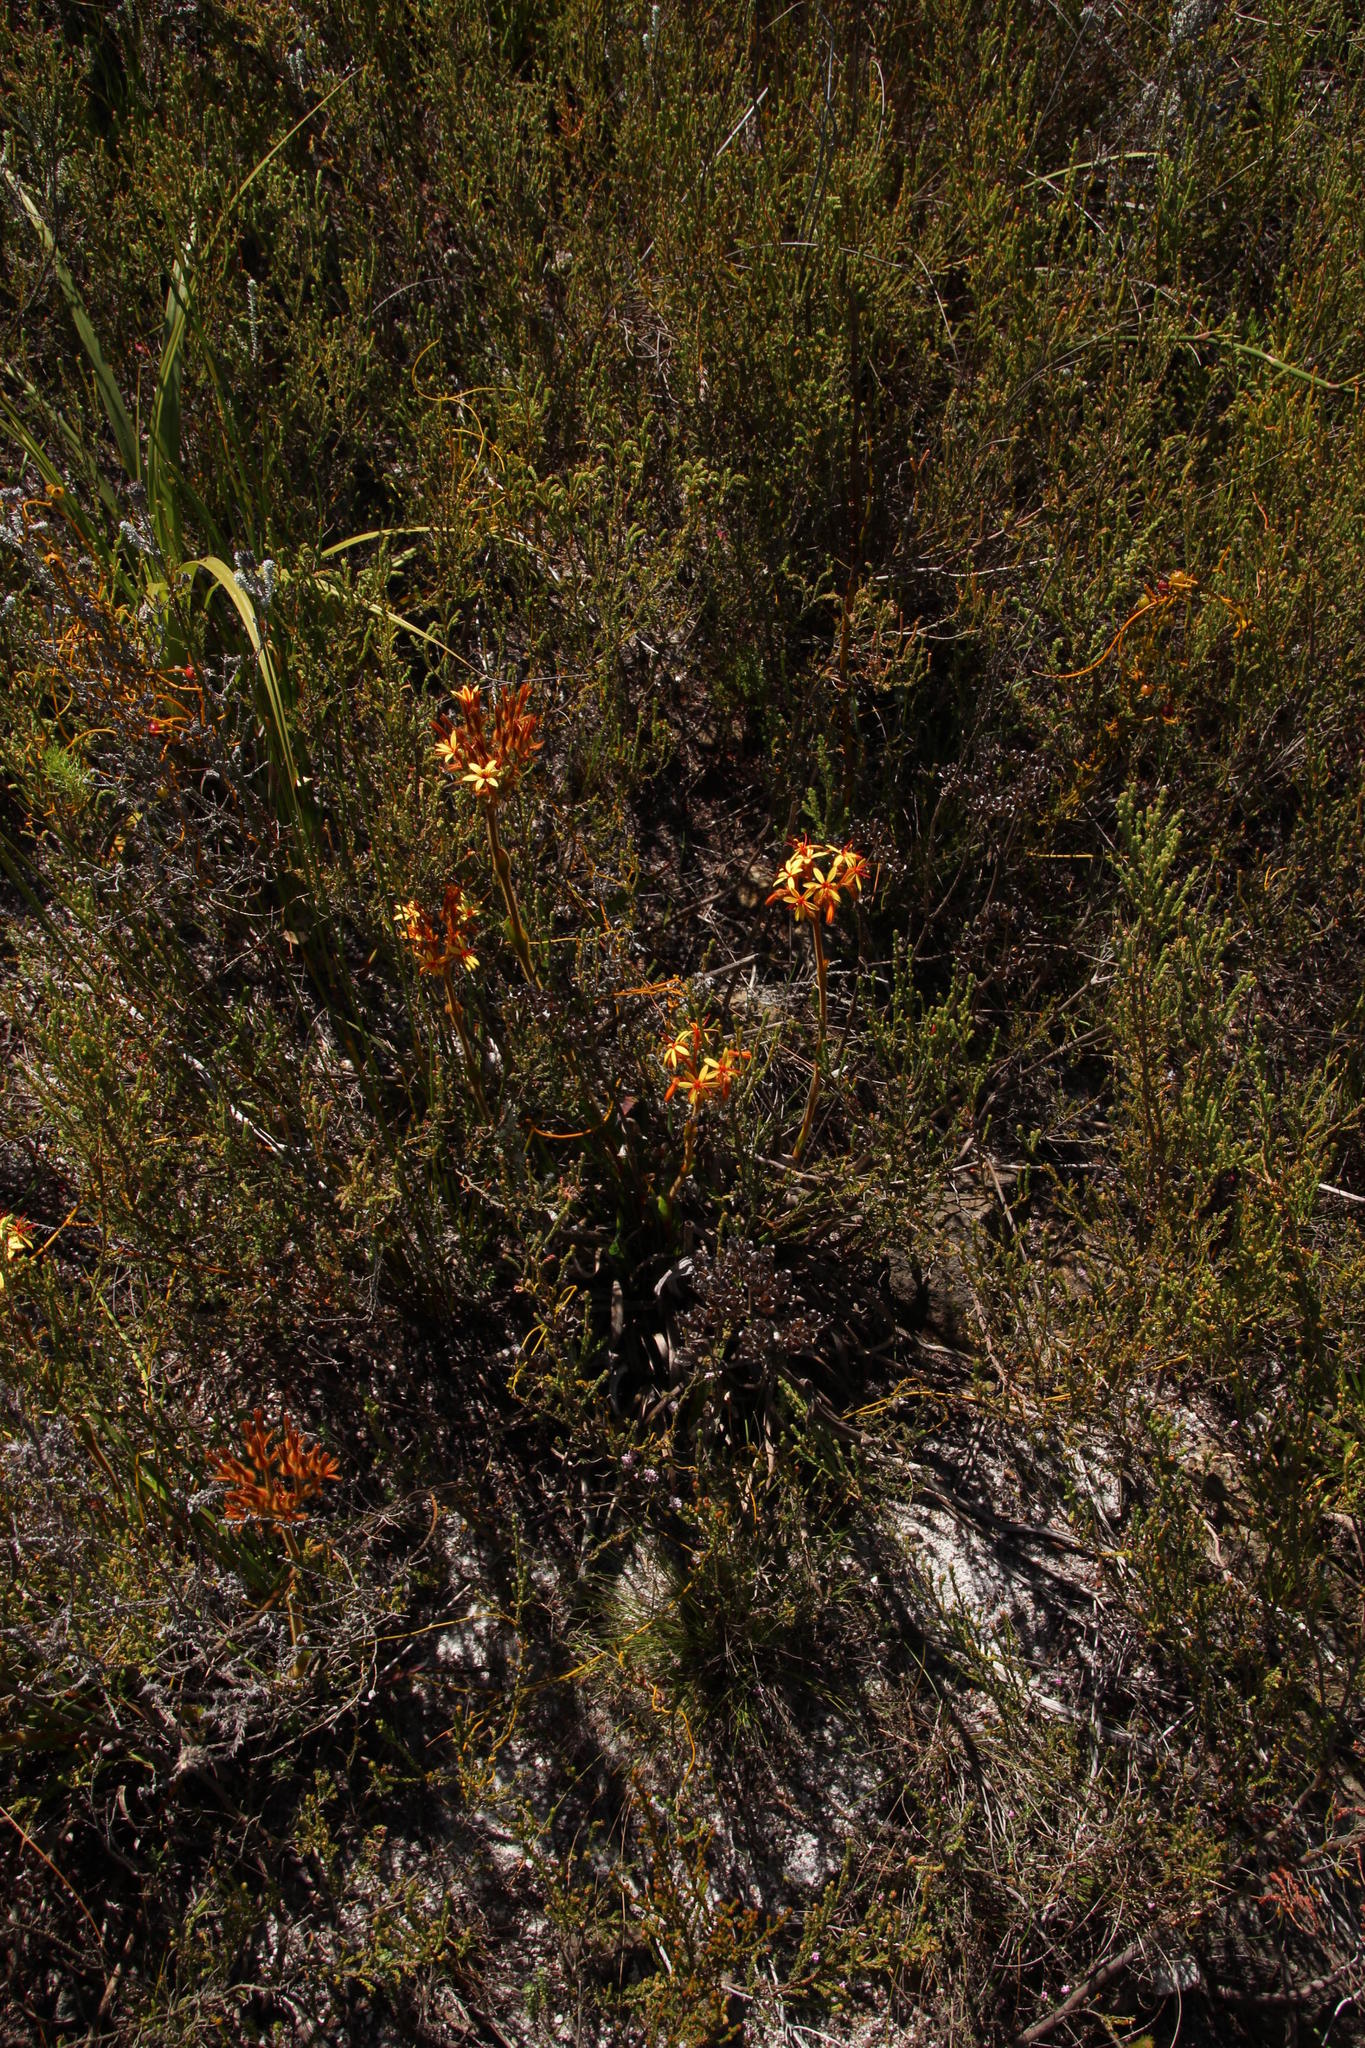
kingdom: Plantae
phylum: Tracheophyta
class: Liliopsida
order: Commelinales
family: Haemodoraceae
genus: Dilatris
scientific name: Dilatris viscosa
